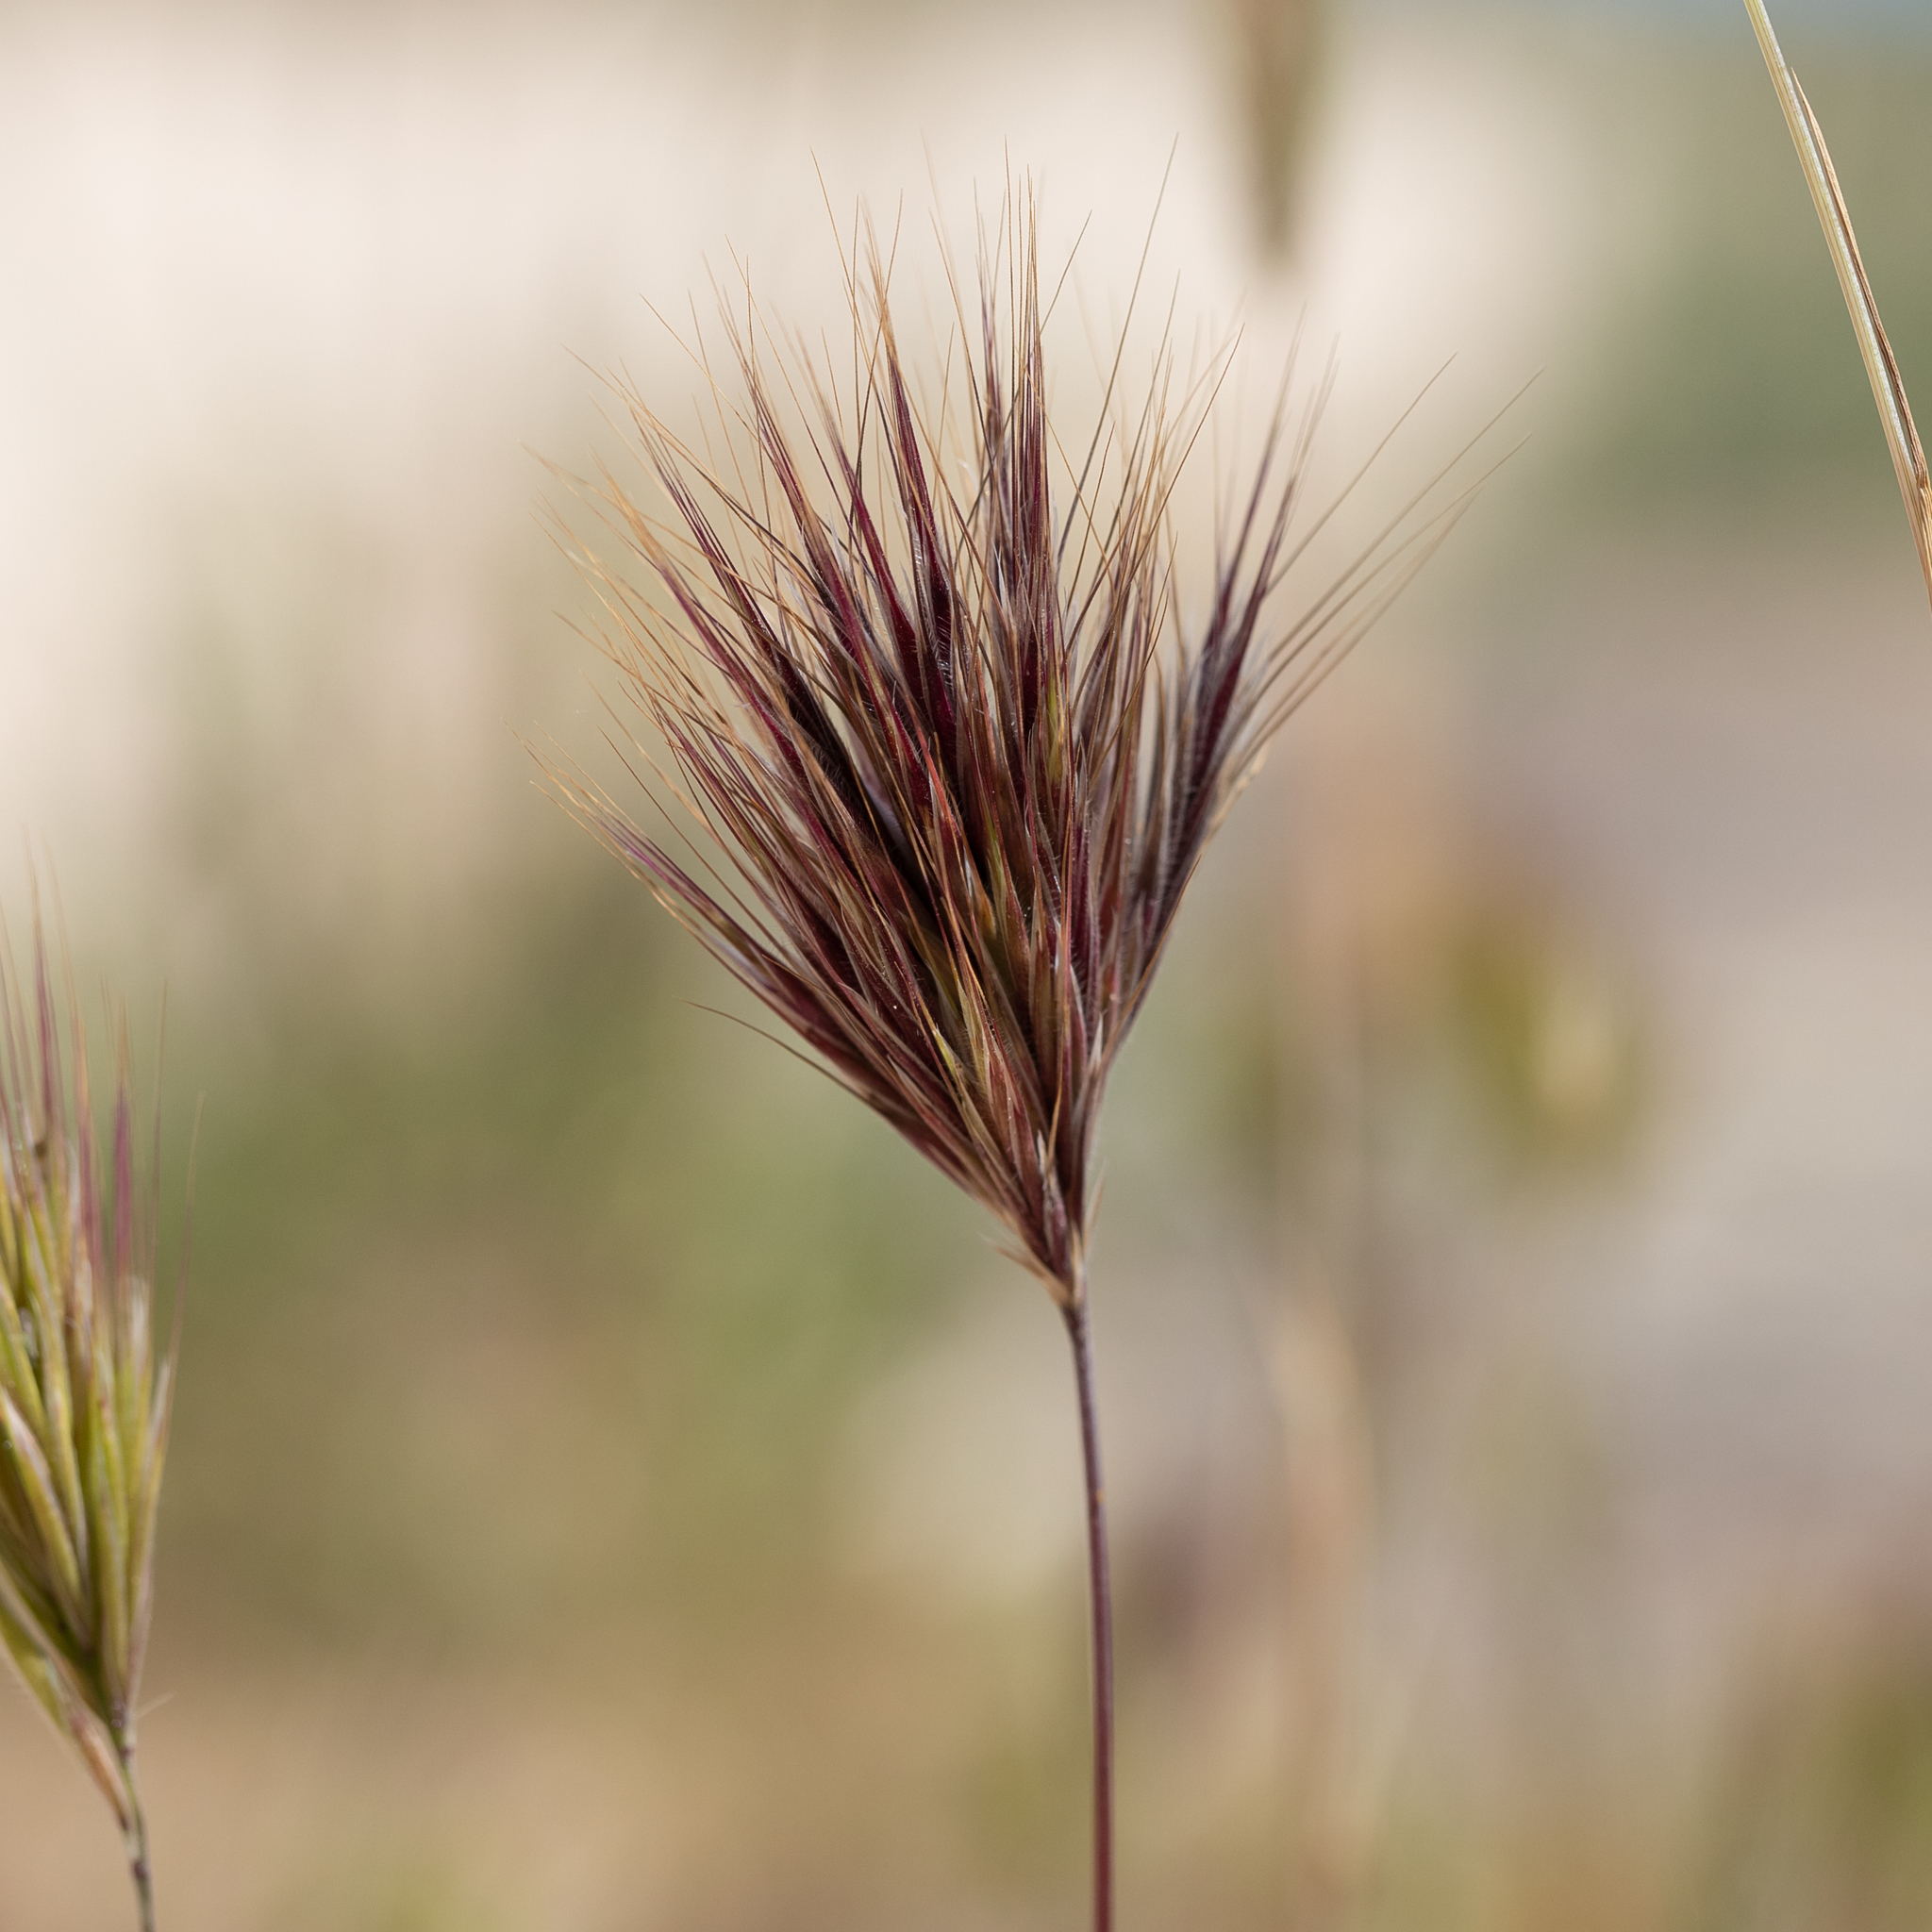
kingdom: Plantae
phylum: Tracheophyta
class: Liliopsida
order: Poales
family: Poaceae
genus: Bromus
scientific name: Bromus rubens
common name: Red brome
